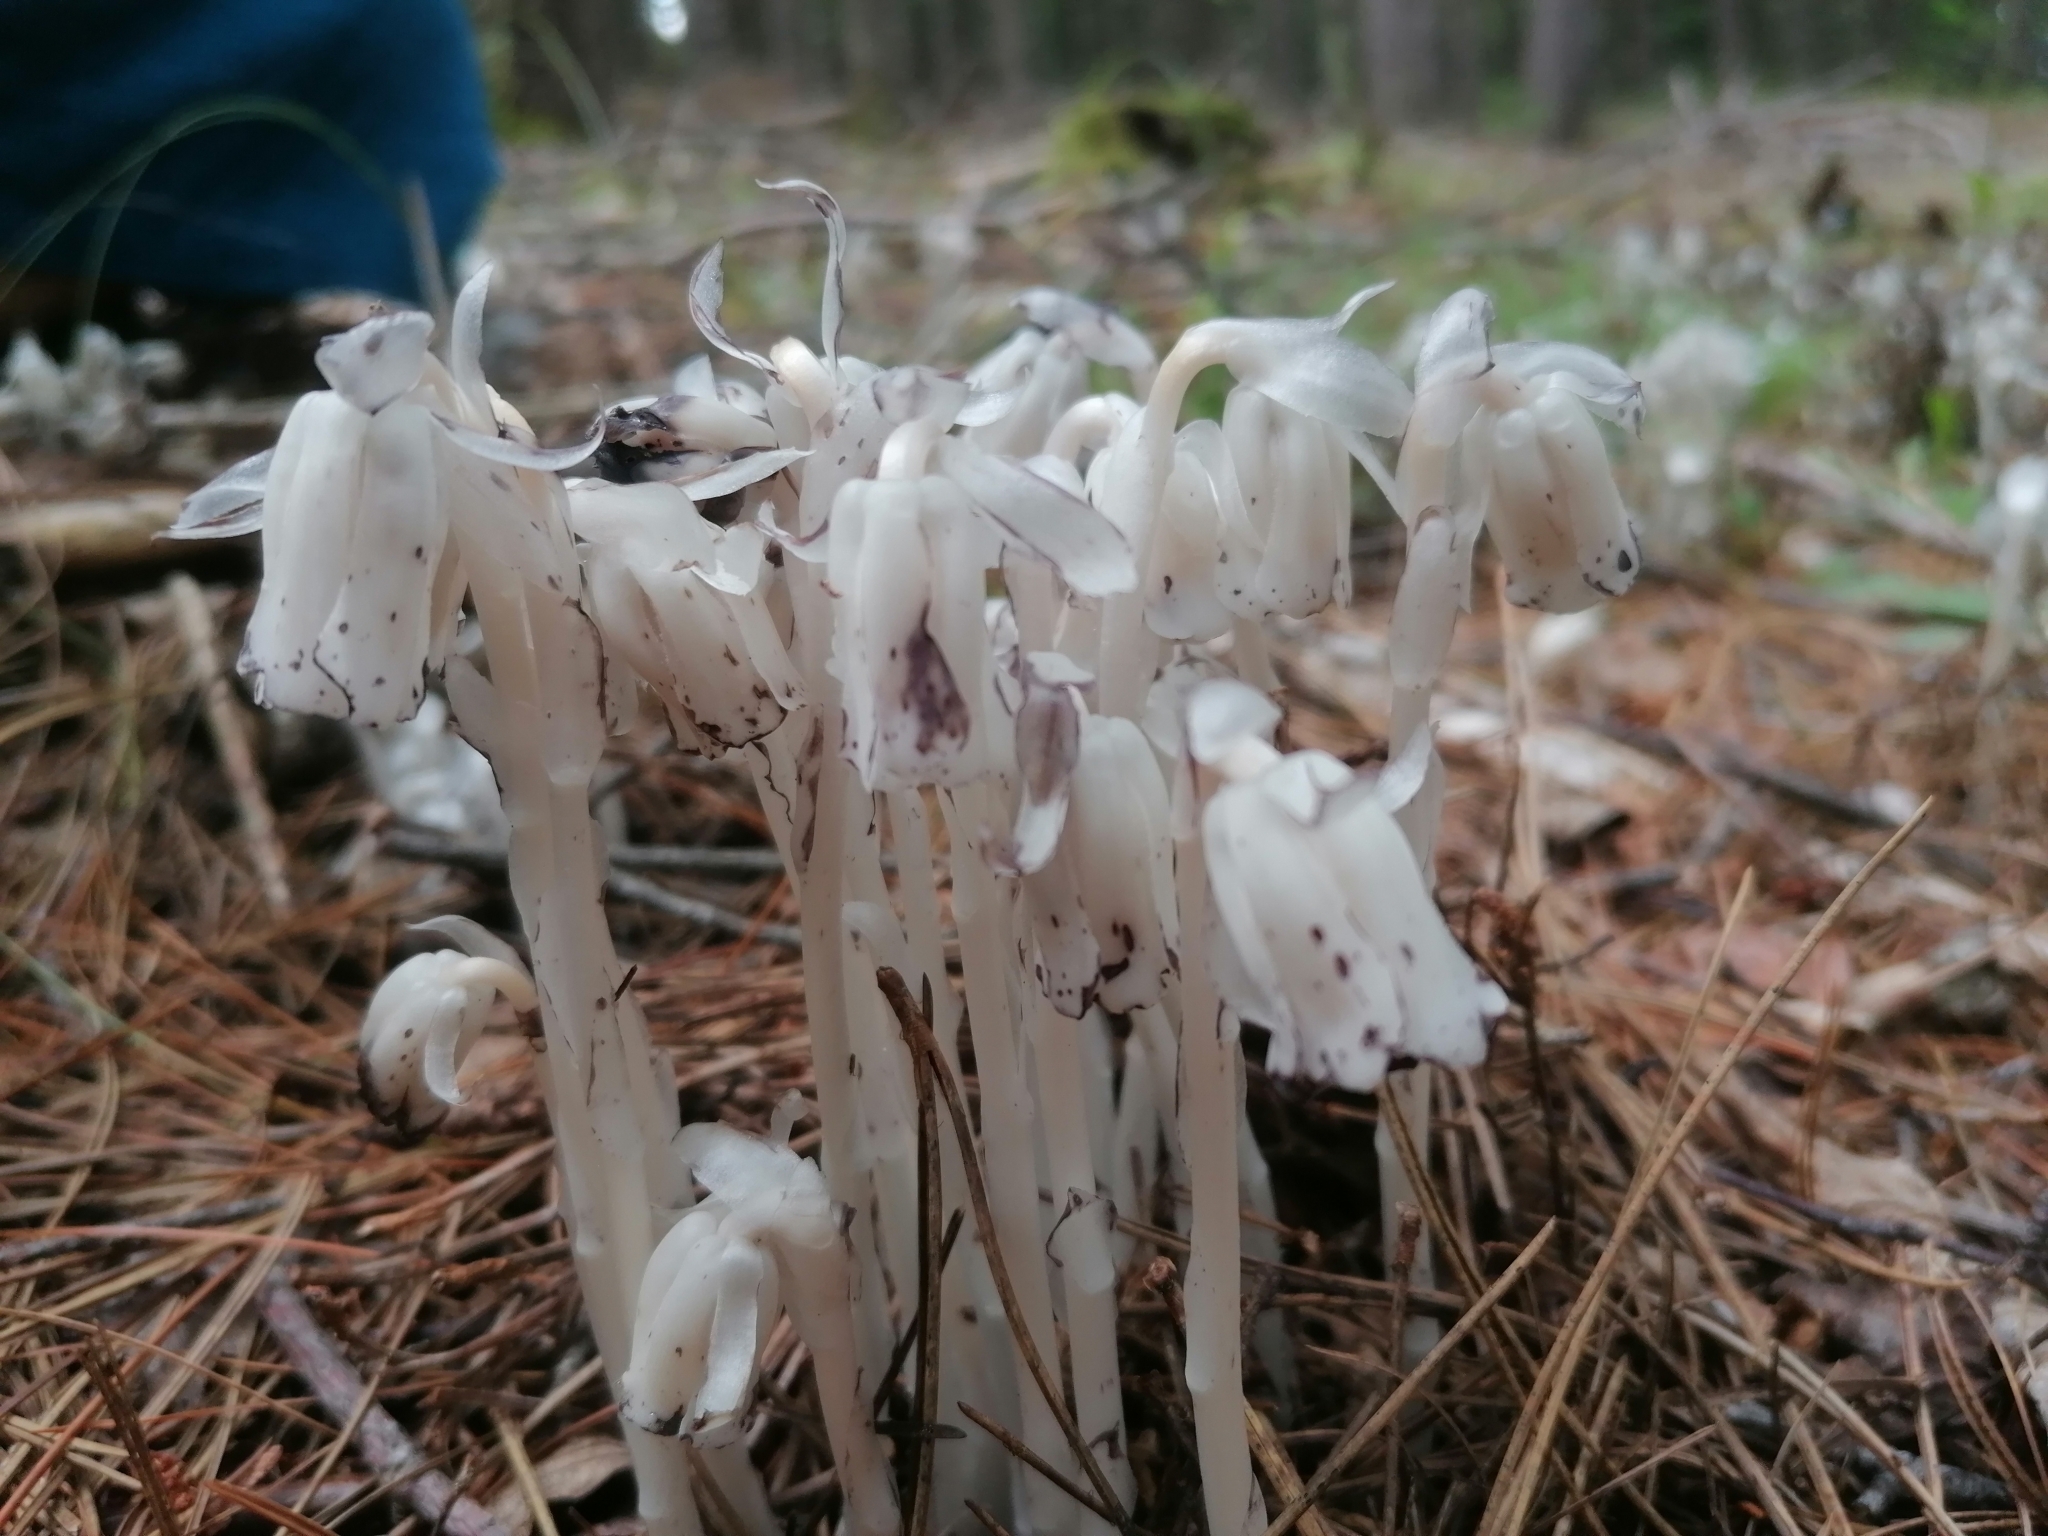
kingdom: Plantae
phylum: Tracheophyta
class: Magnoliopsida
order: Ericales
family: Ericaceae
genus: Monotropa
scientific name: Monotropa uniflora
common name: Convulsion root
